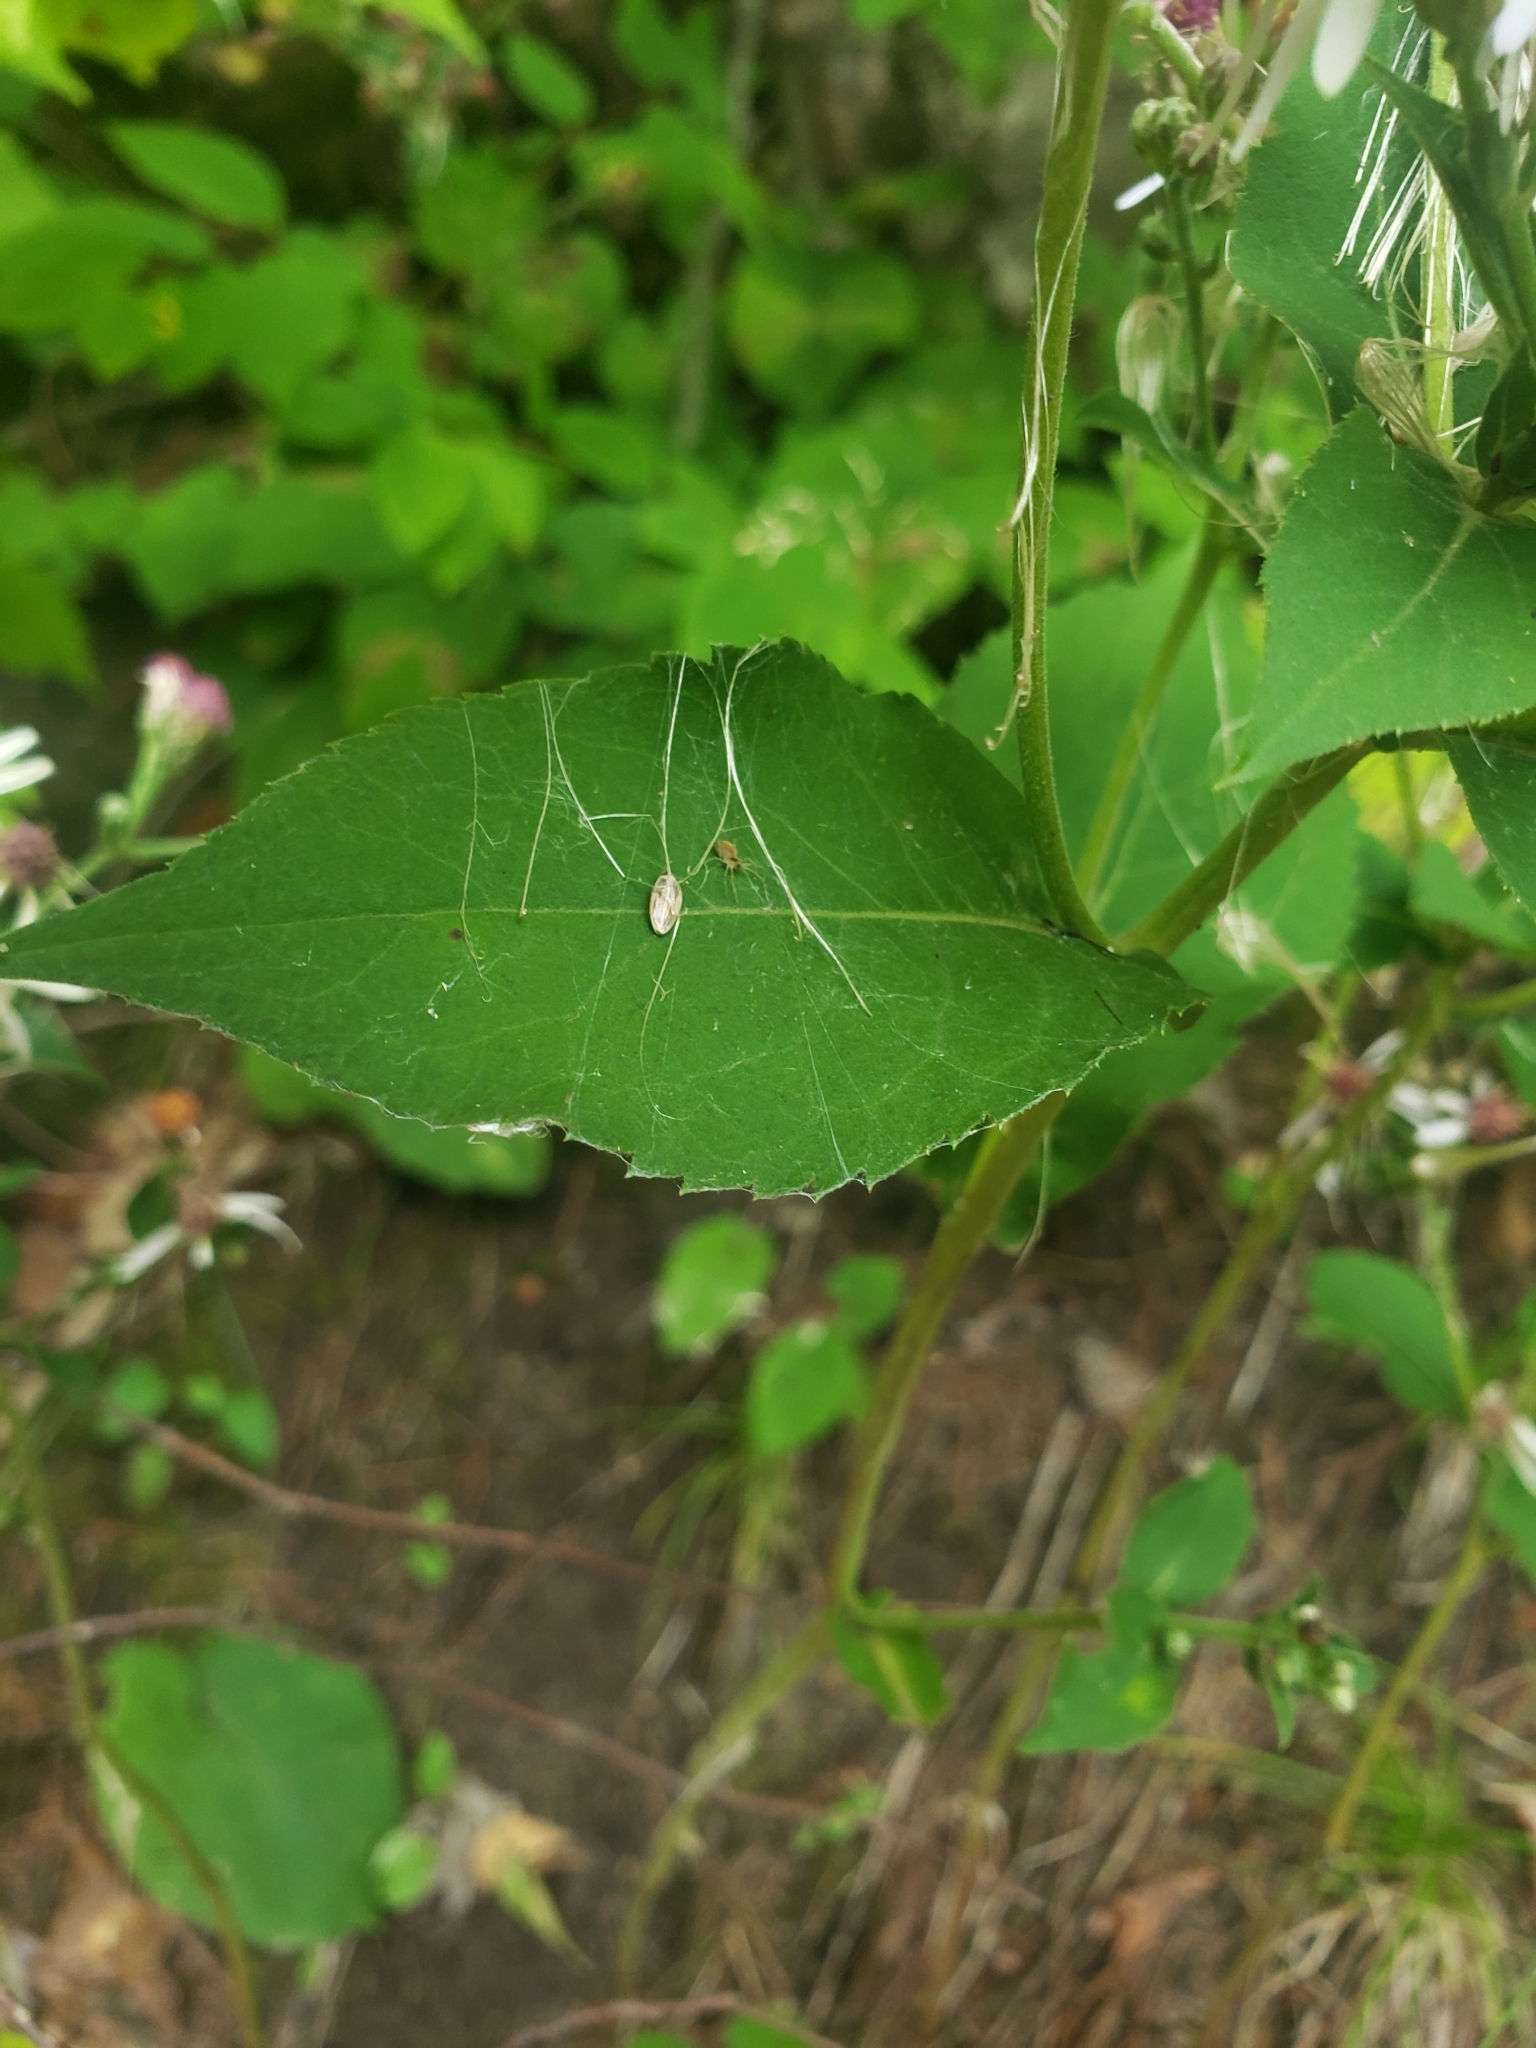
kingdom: Plantae
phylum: Tracheophyta
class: Magnoliopsida
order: Asterales
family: Asteraceae
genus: Eurybia
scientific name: Eurybia macrophylla
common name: Big-leaved aster
